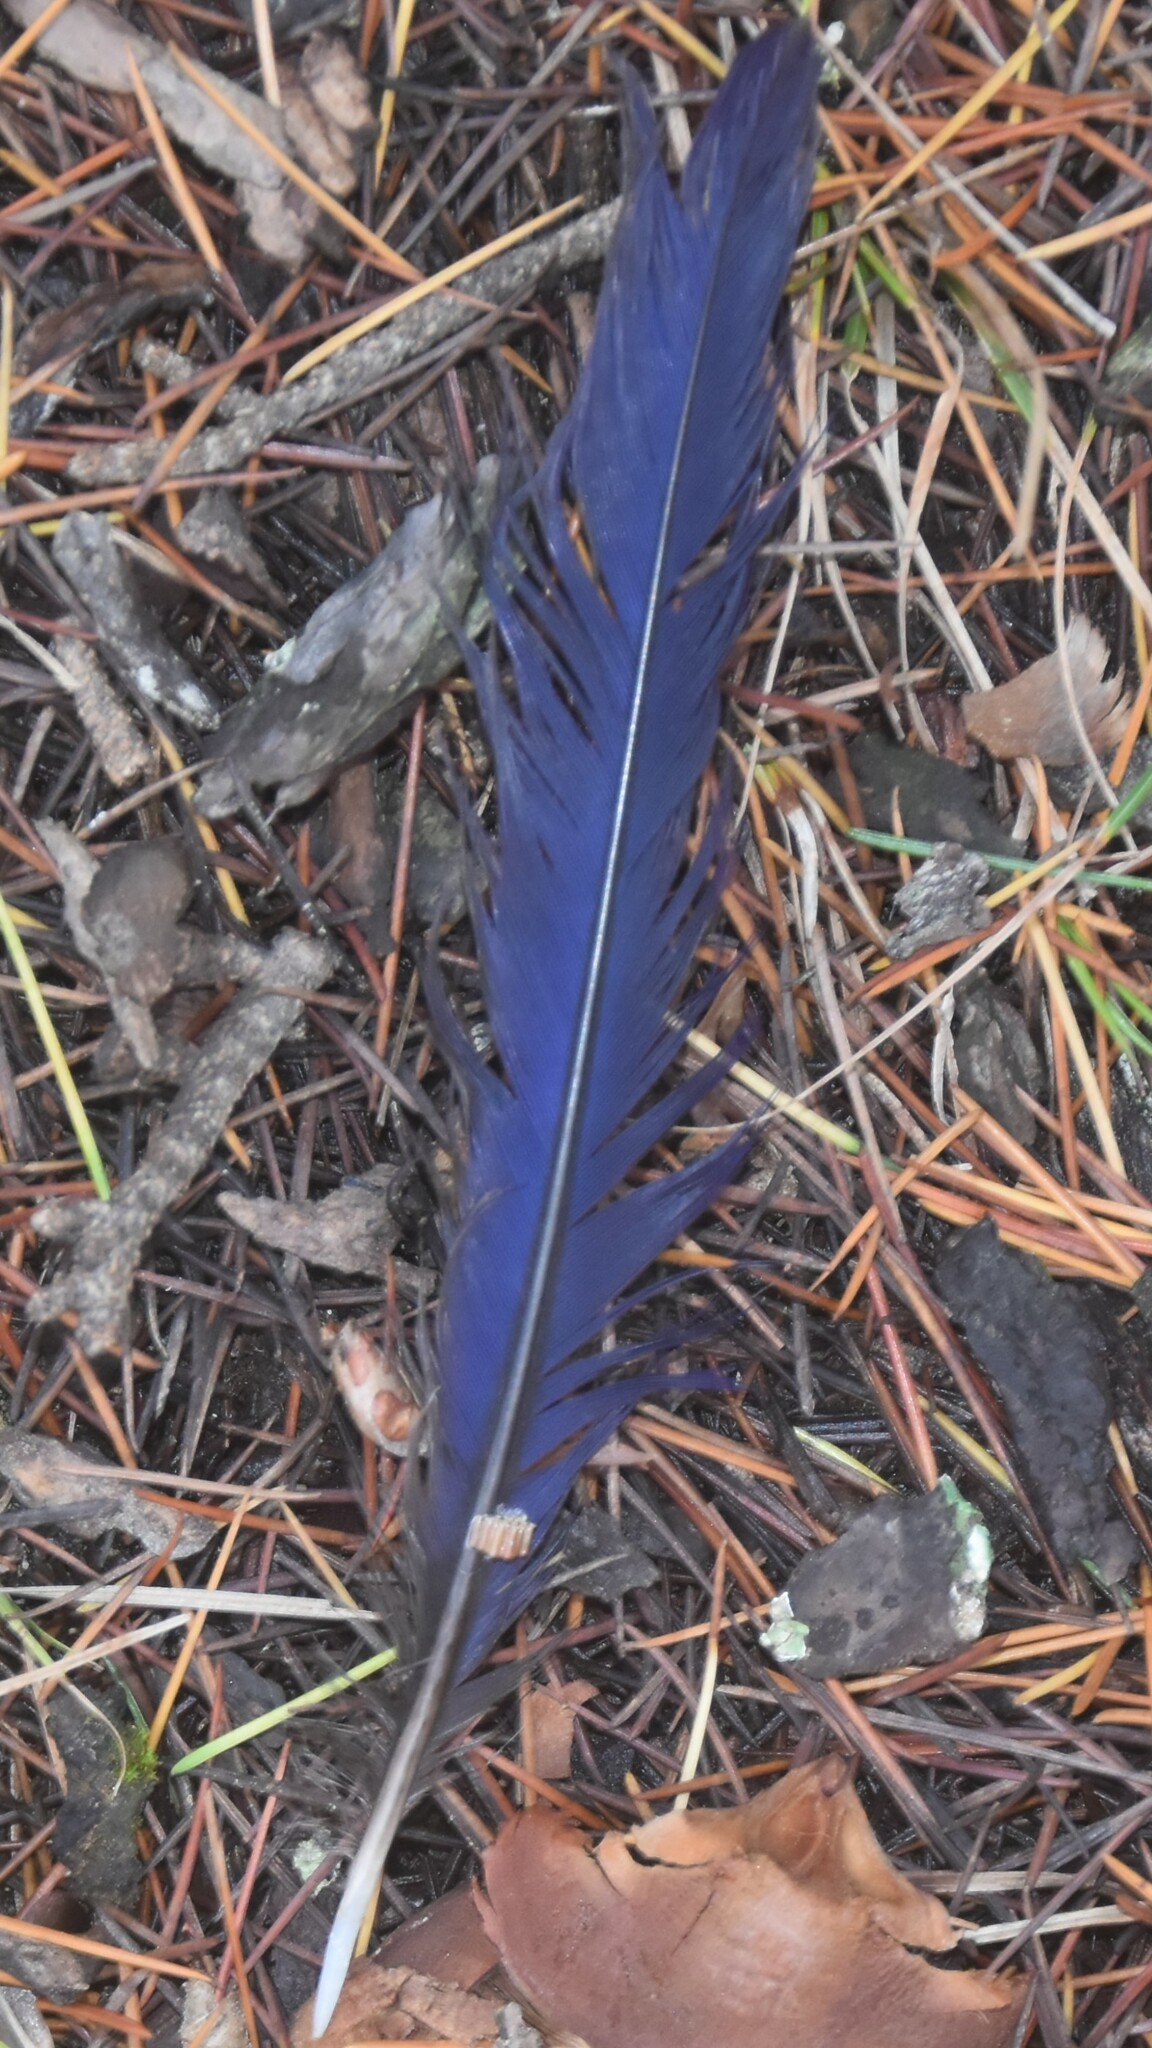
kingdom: Animalia
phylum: Chordata
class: Aves
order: Passeriformes
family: Muscicapidae
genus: Myophonus
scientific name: Myophonus caeruleus
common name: Blue whistling-thrush
